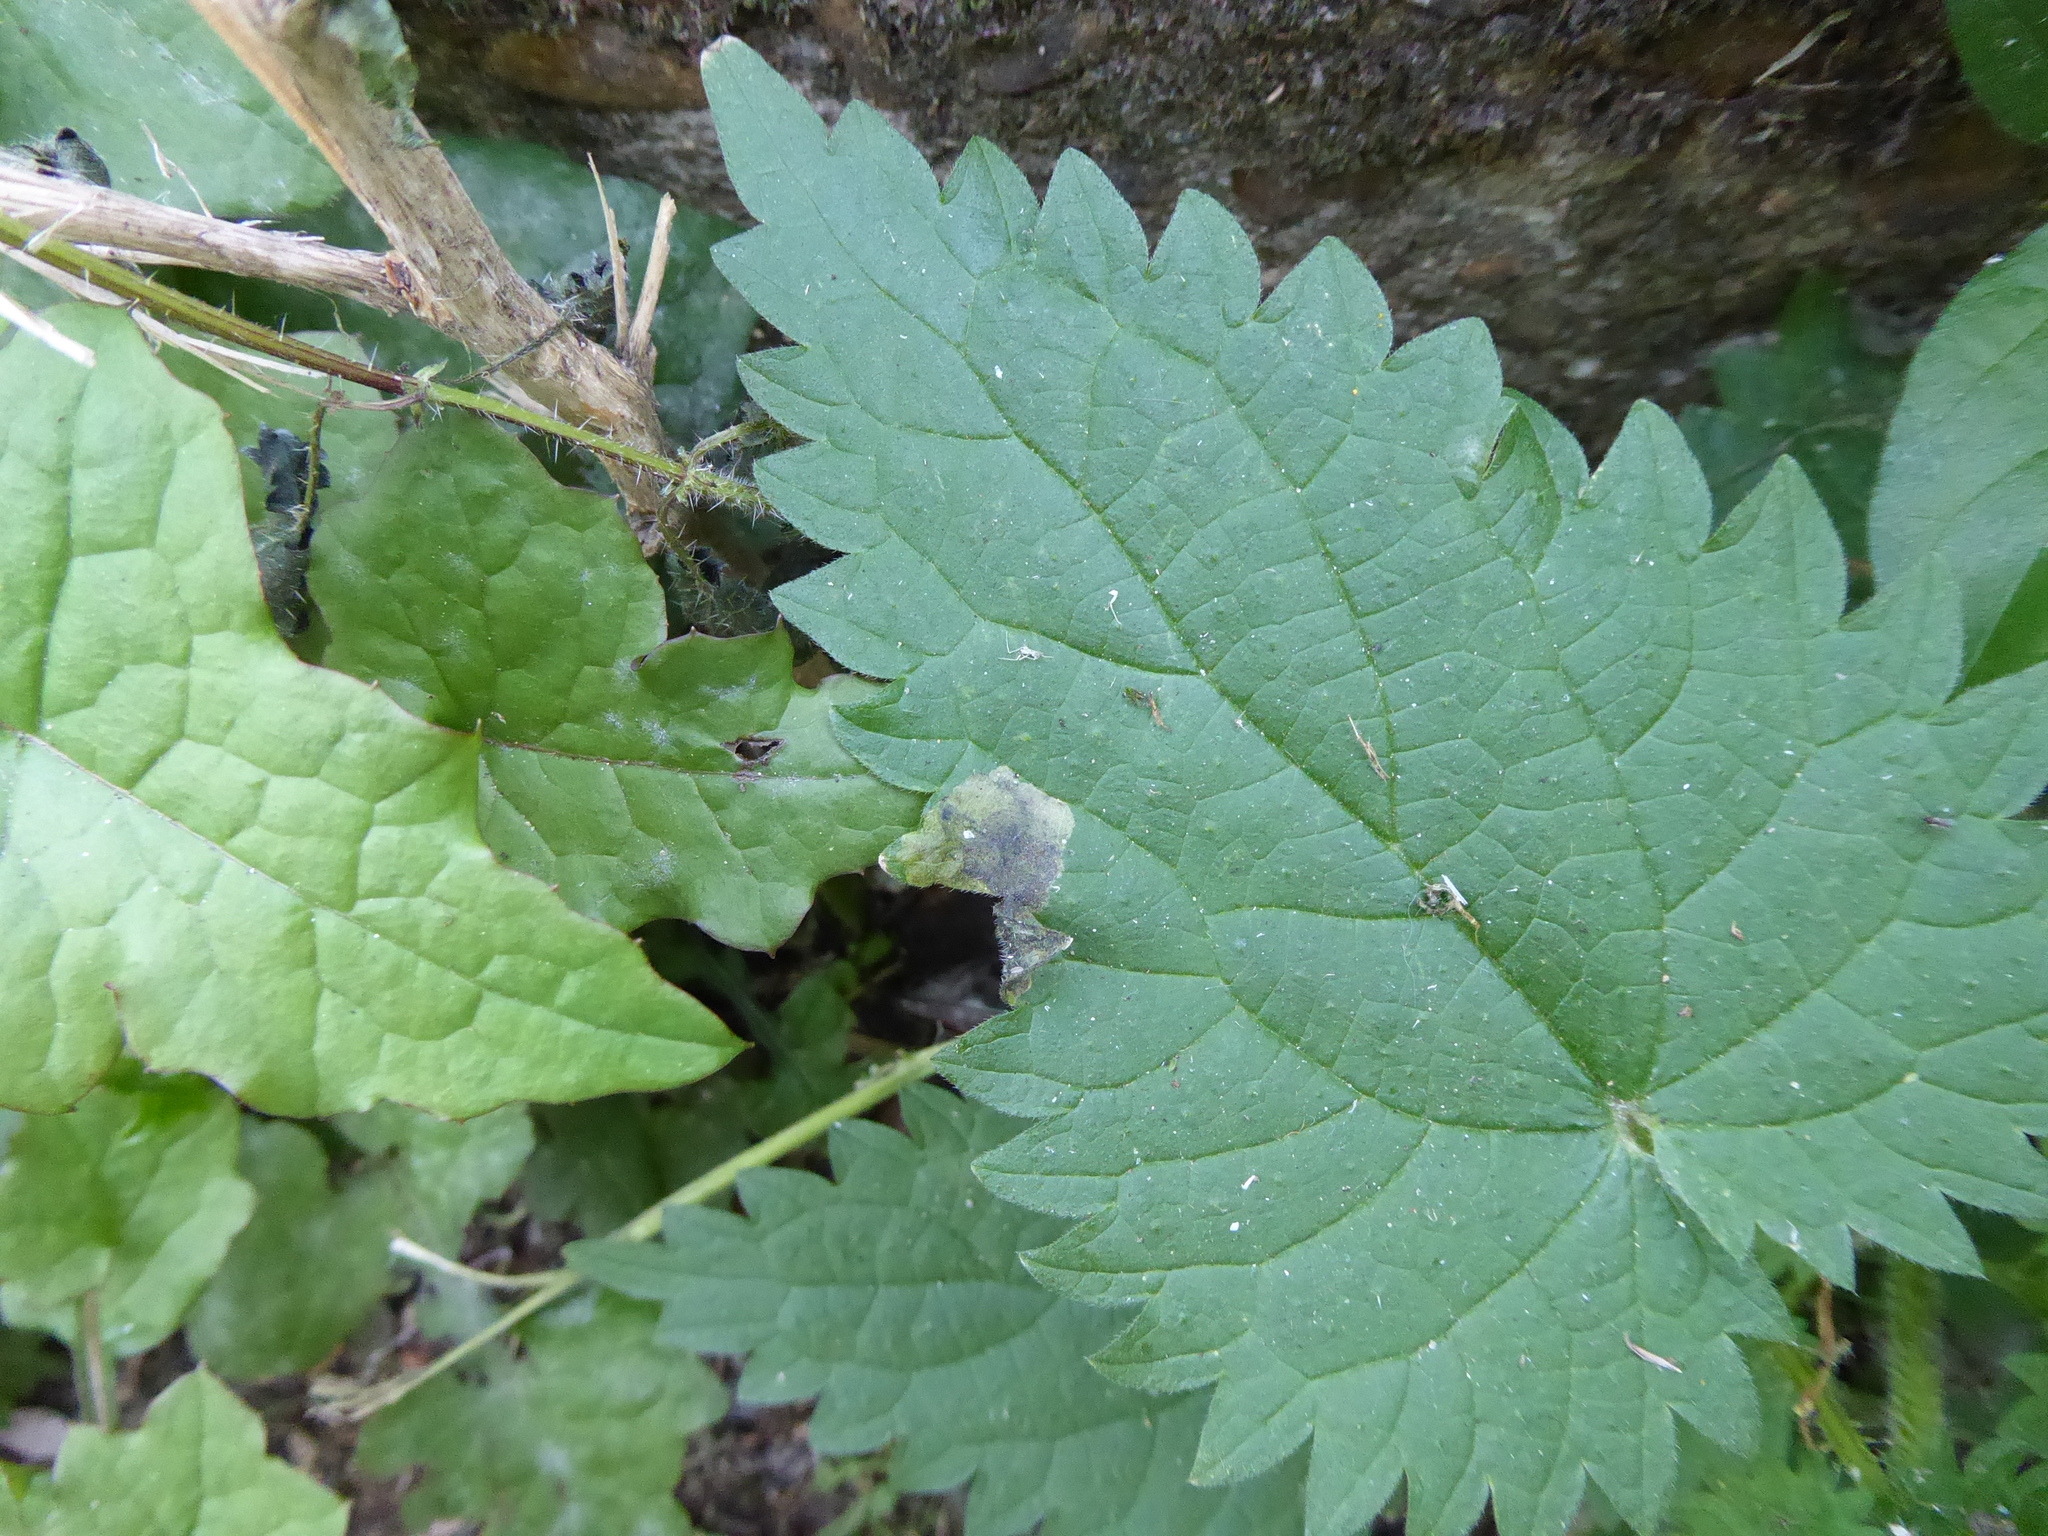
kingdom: Animalia
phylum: Arthropoda
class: Insecta
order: Diptera
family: Agromyzidae
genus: Agromyza
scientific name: Agromyza anthracina
